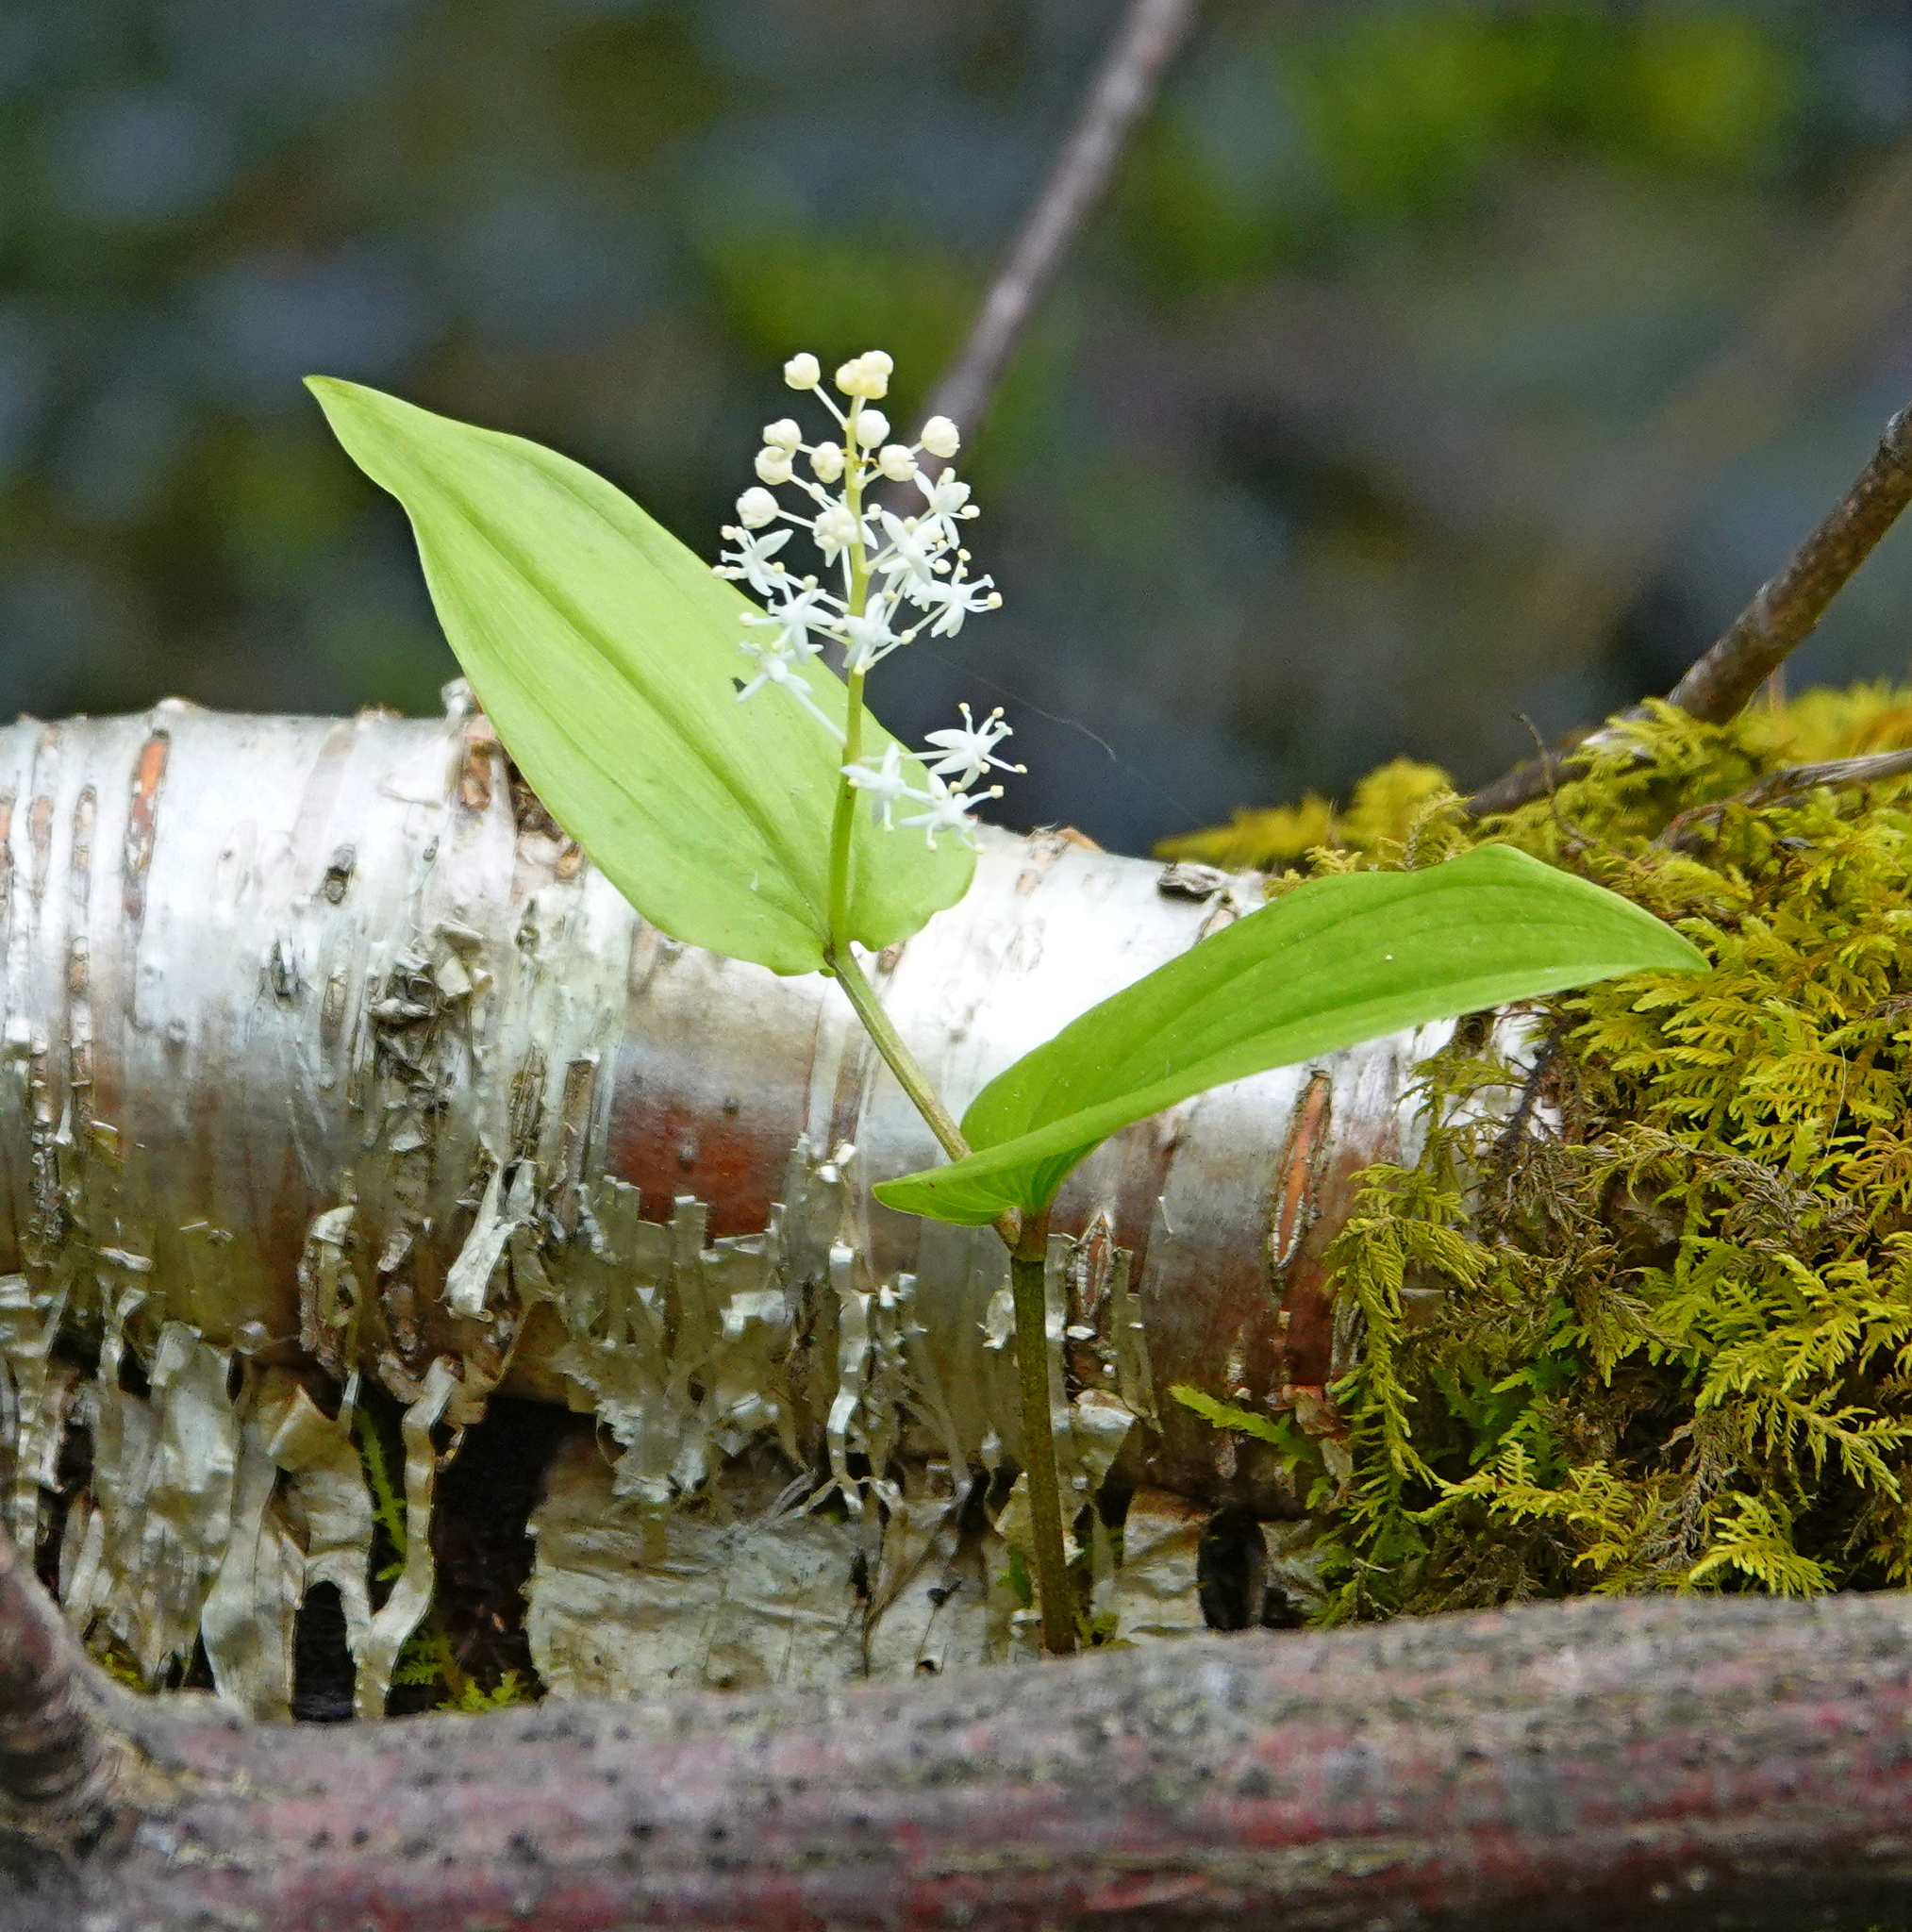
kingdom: Plantae
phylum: Tracheophyta
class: Liliopsida
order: Asparagales
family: Asparagaceae
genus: Maianthemum
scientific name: Maianthemum canadense
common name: False lily-of-the-valley
